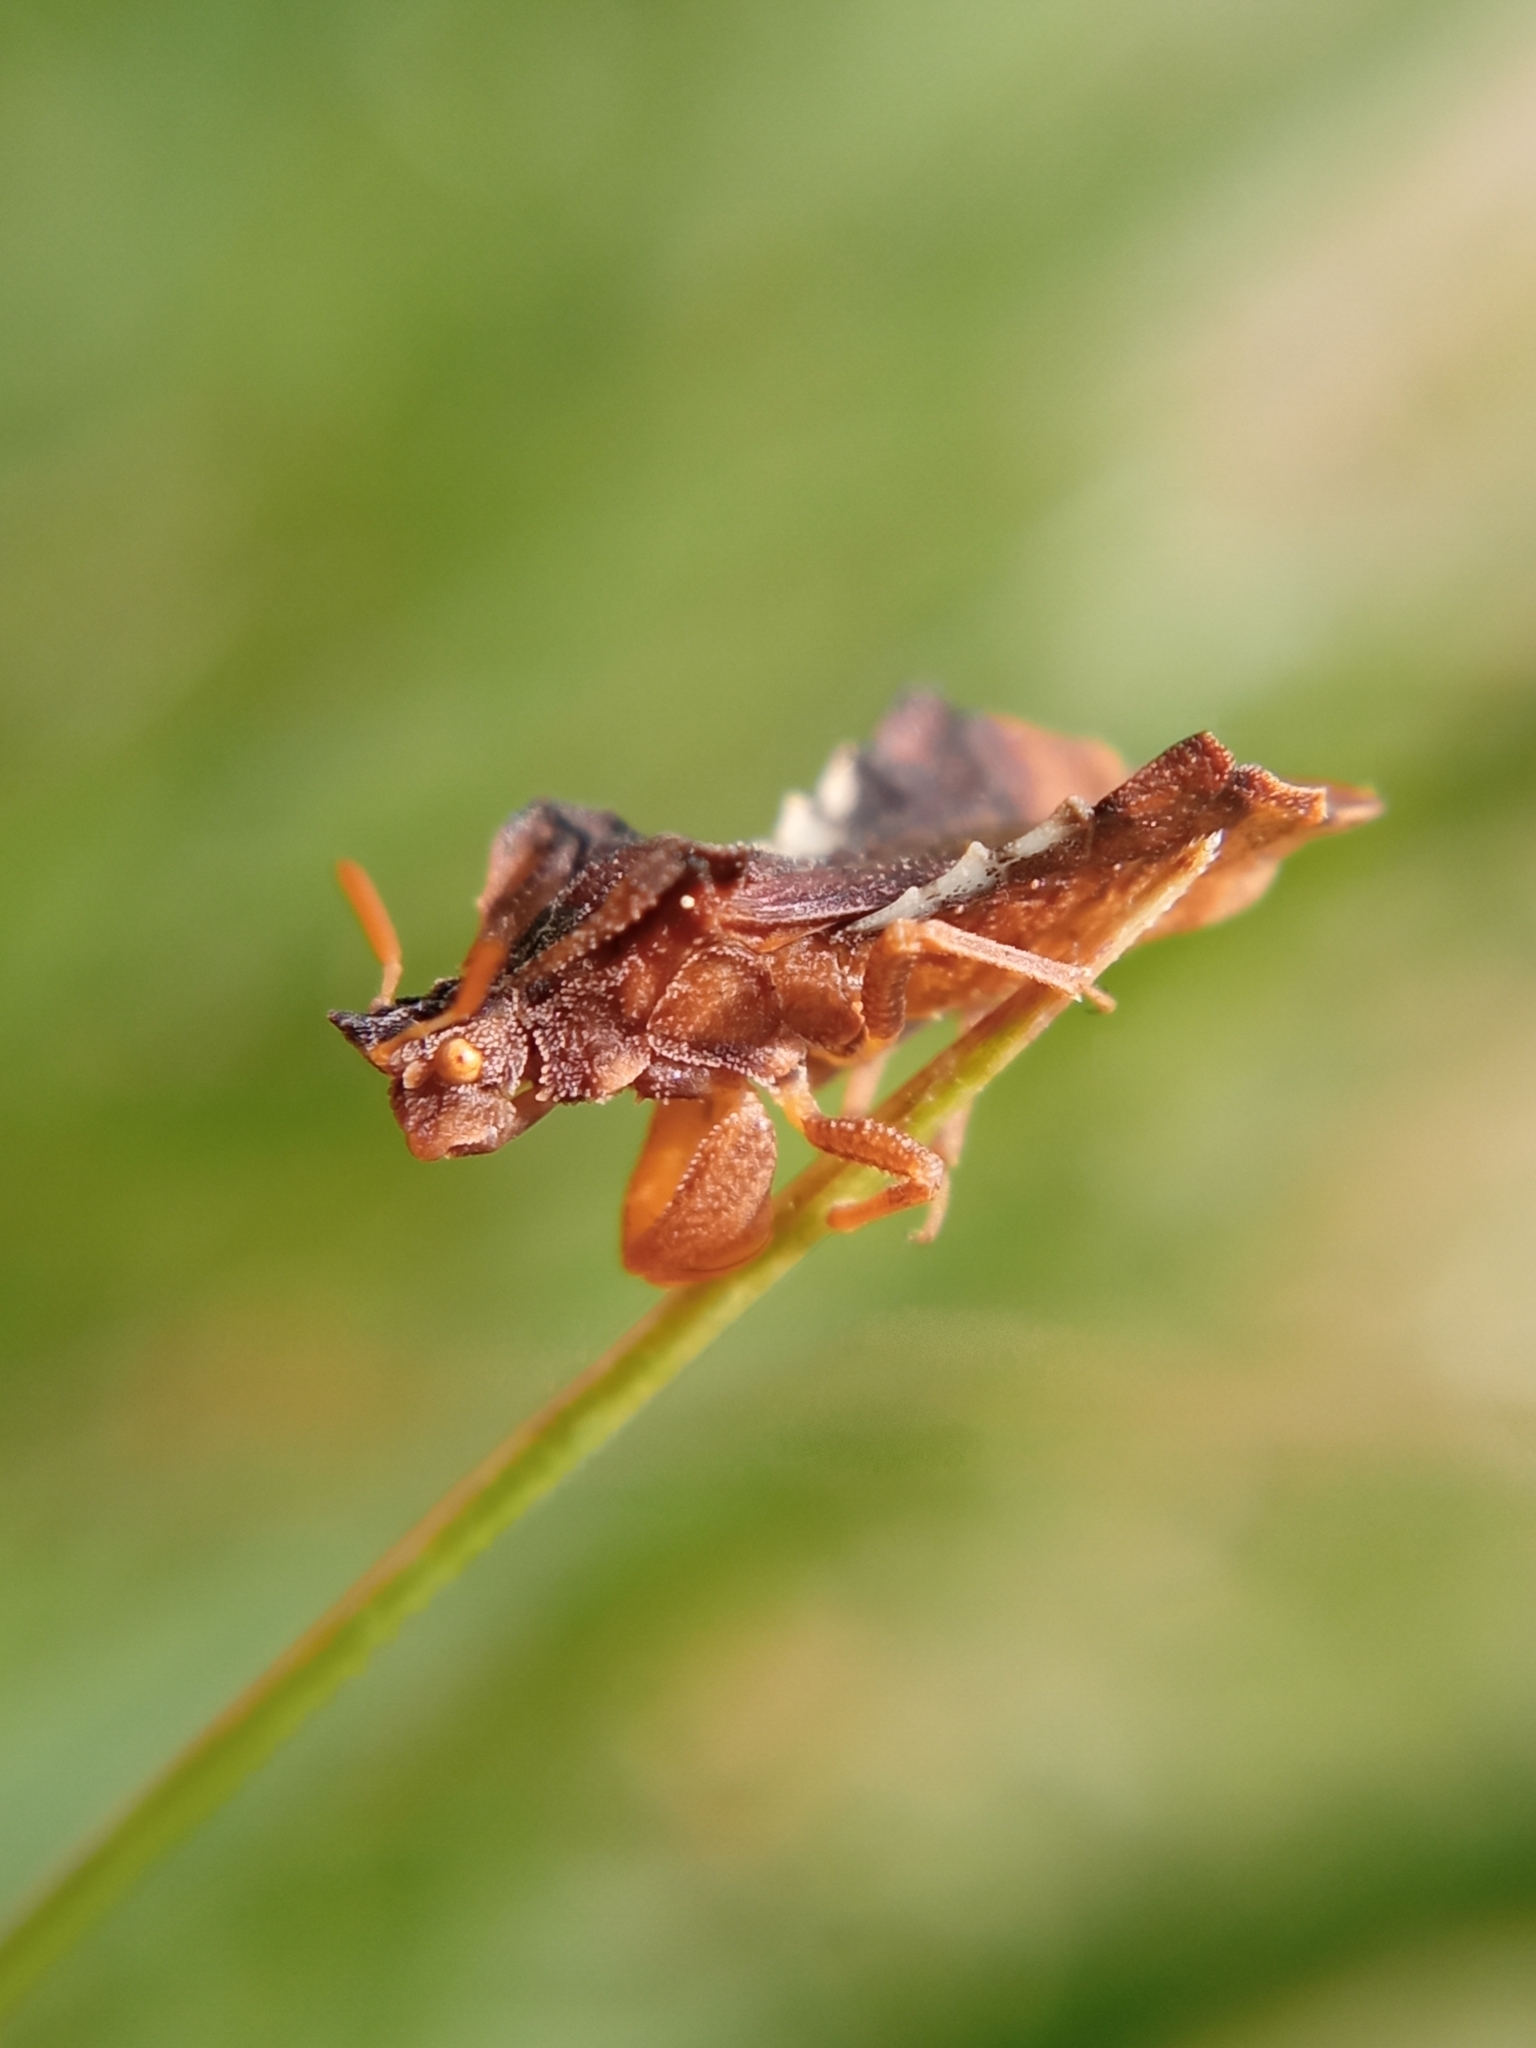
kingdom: Animalia
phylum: Arthropoda
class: Insecta
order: Hemiptera
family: Reduviidae
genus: Phymata
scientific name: Phymata crassipes
